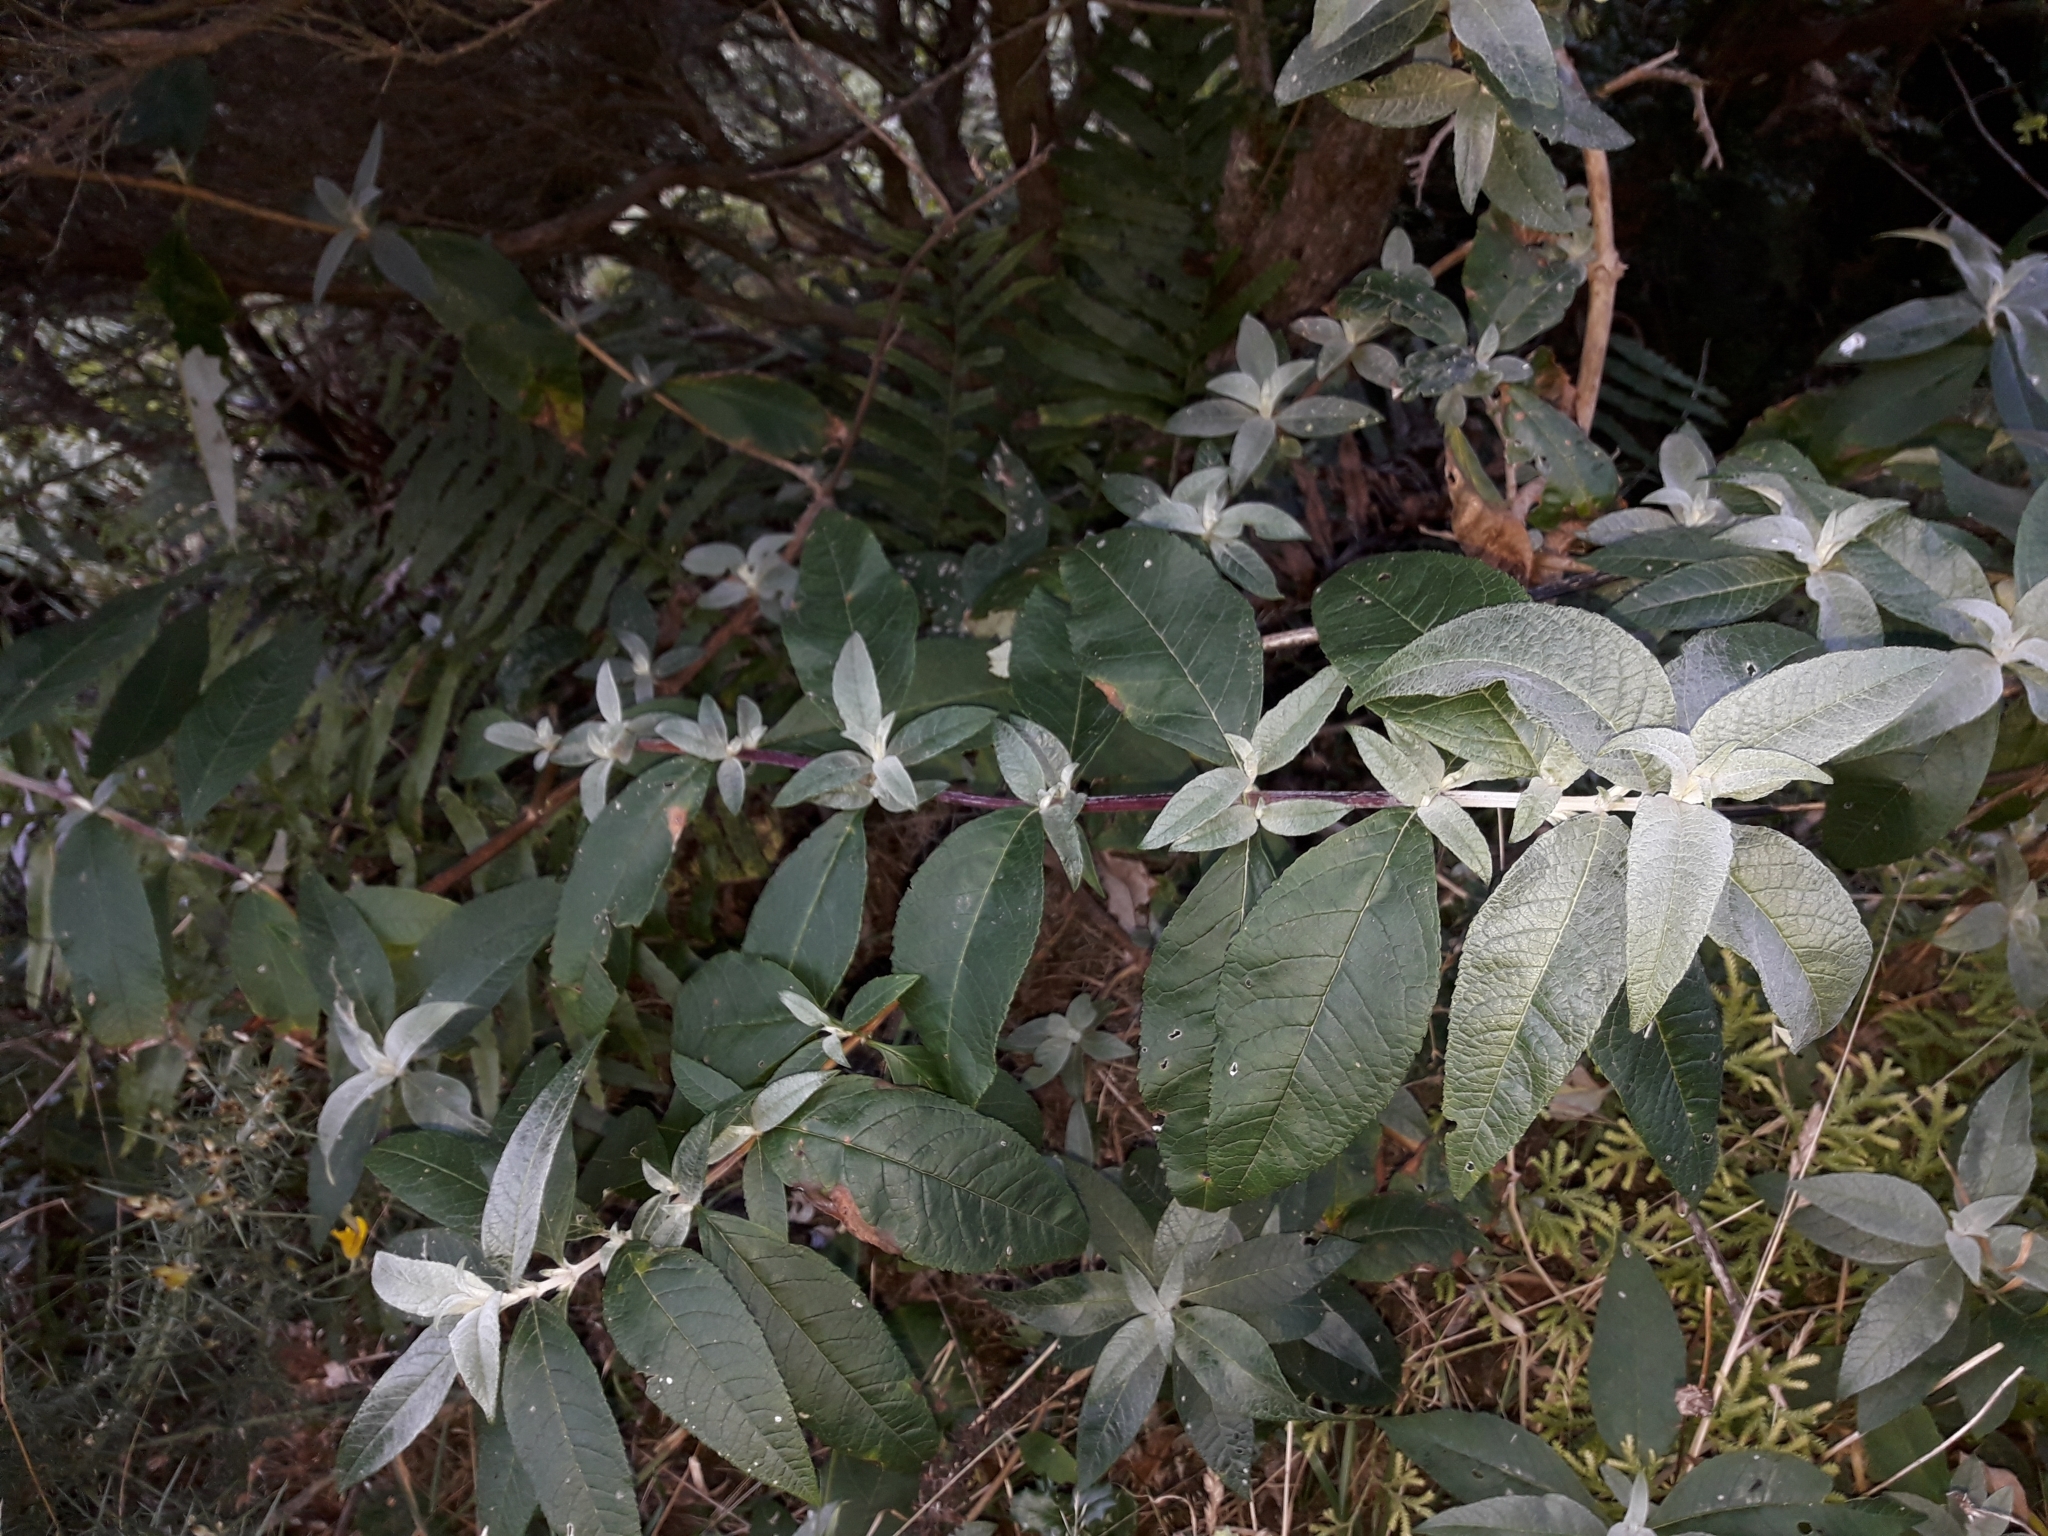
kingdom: Plantae
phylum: Tracheophyta
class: Magnoliopsida
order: Lamiales
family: Scrophulariaceae
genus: Buddleja
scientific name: Buddleja davidii
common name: Butterfly-bush
